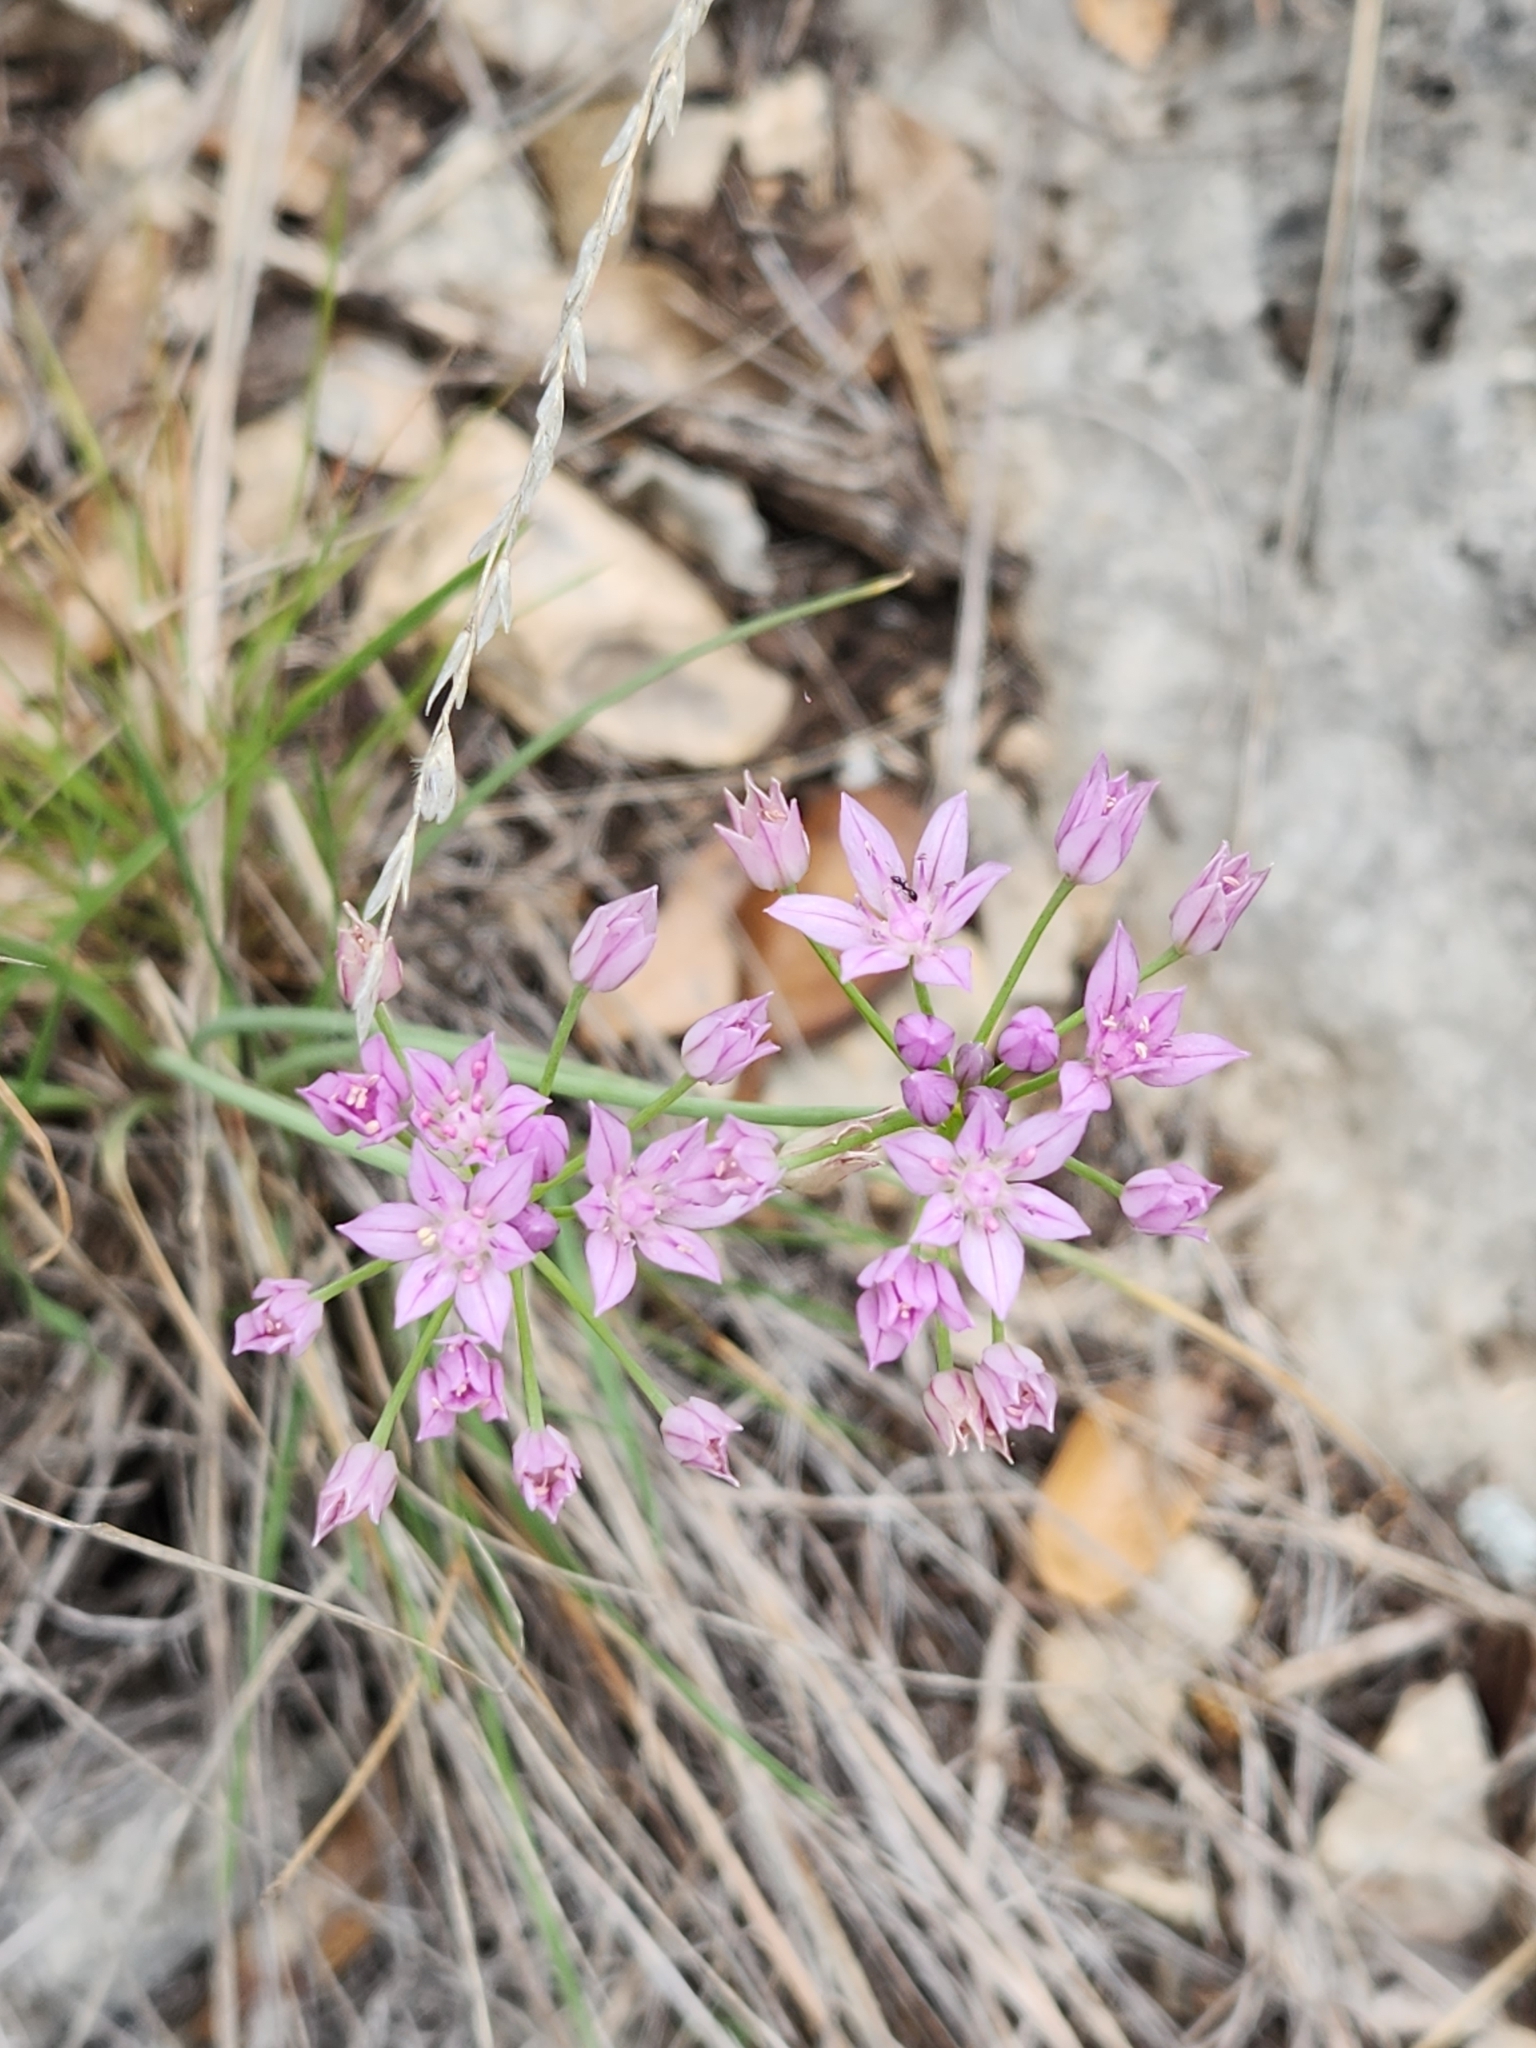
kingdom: Plantae
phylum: Tracheophyta
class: Liliopsida
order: Asparagales
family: Amaryllidaceae
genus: Allium
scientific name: Allium drummondii
